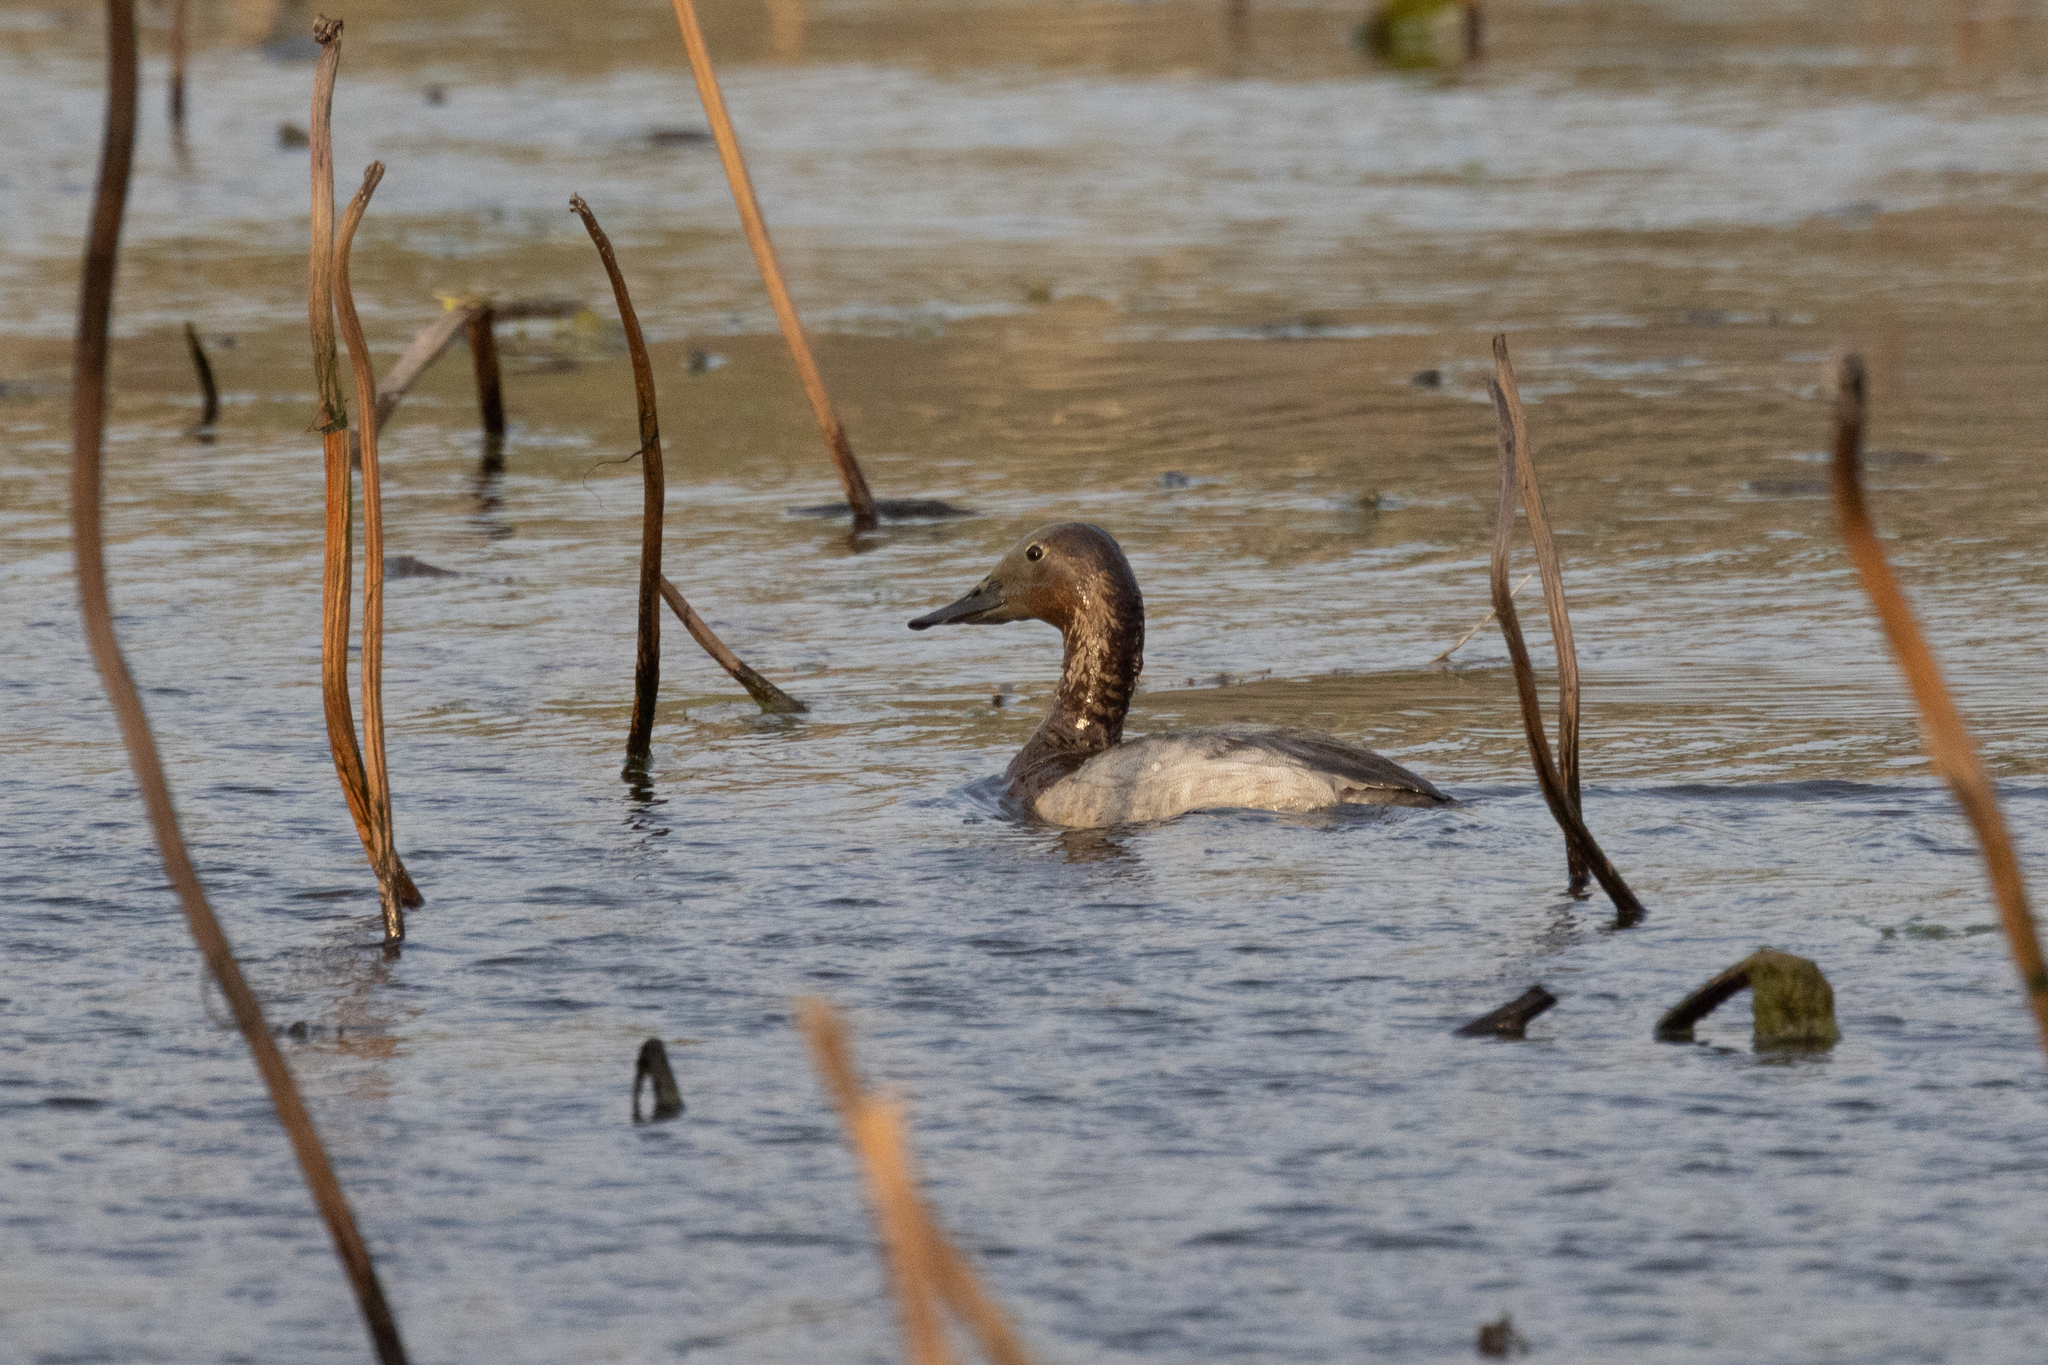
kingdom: Animalia
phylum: Chordata
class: Aves
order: Anseriformes
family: Anatidae
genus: Aythya
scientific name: Aythya valisineria
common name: Canvasback
